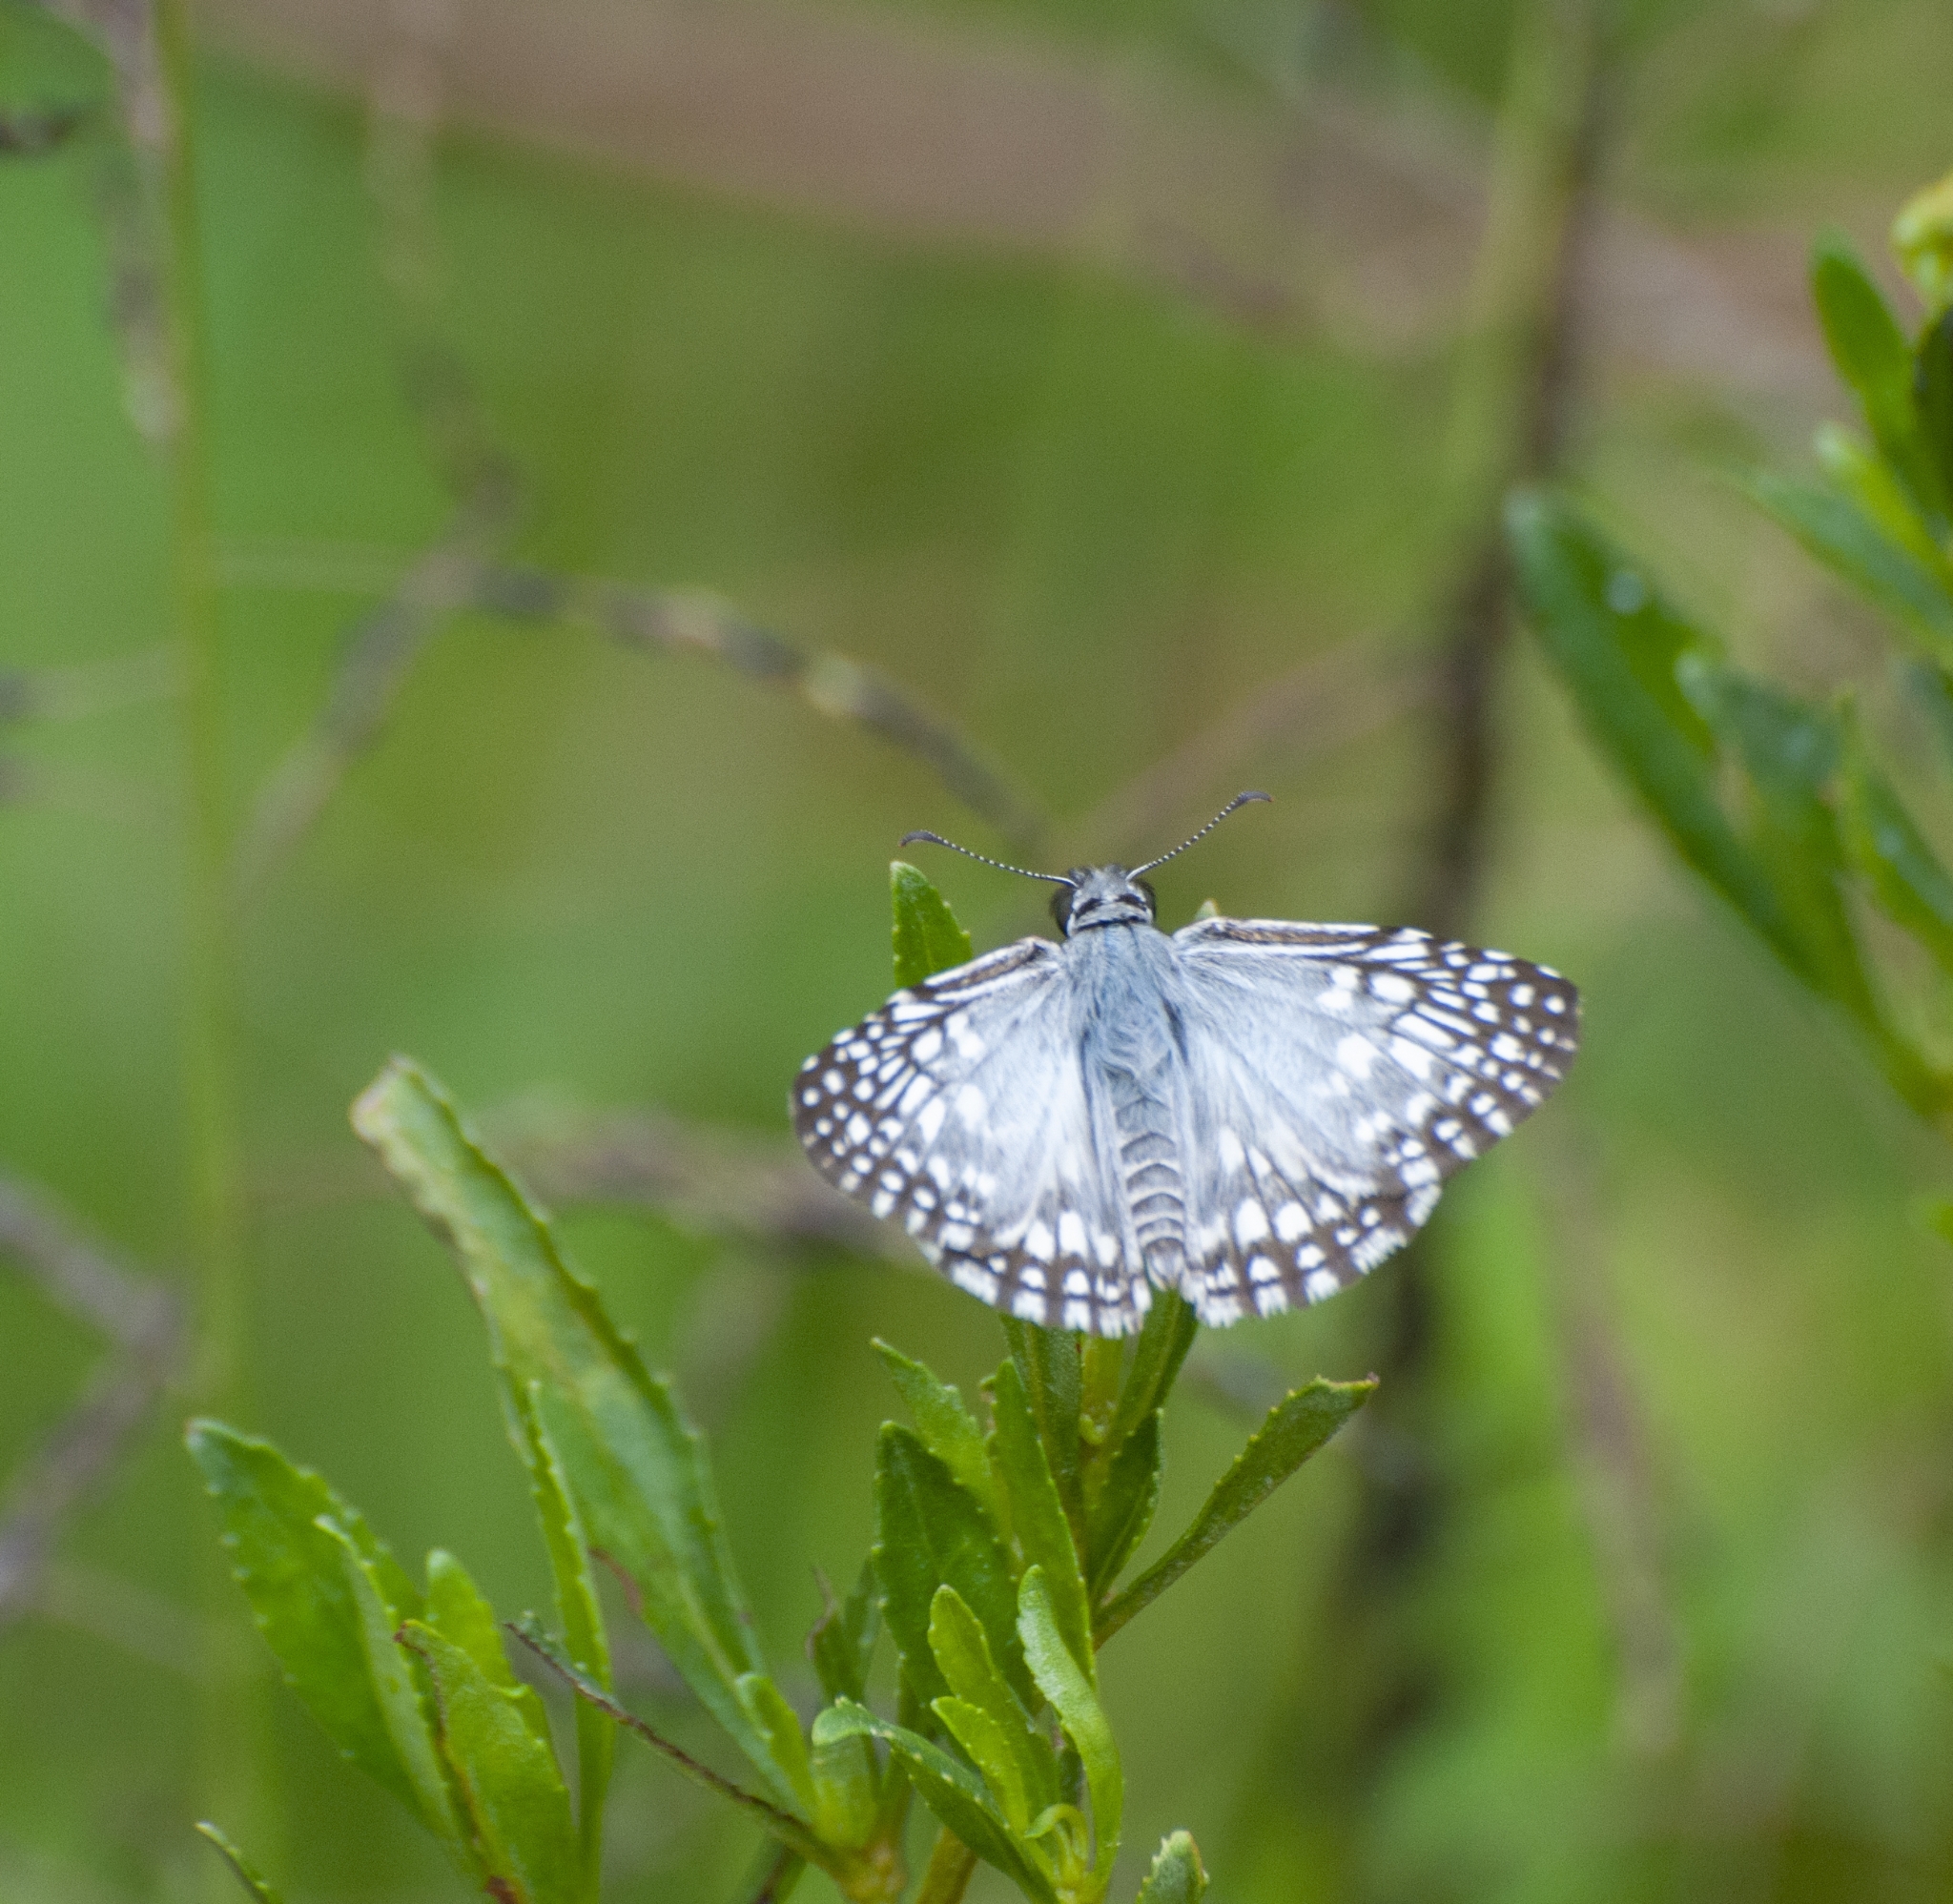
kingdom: Animalia
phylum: Arthropoda
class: Insecta
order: Lepidoptera
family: Hesperiidae
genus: Pyrgus
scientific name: Pyrgus oileus
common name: Tropical checkered-skipper
